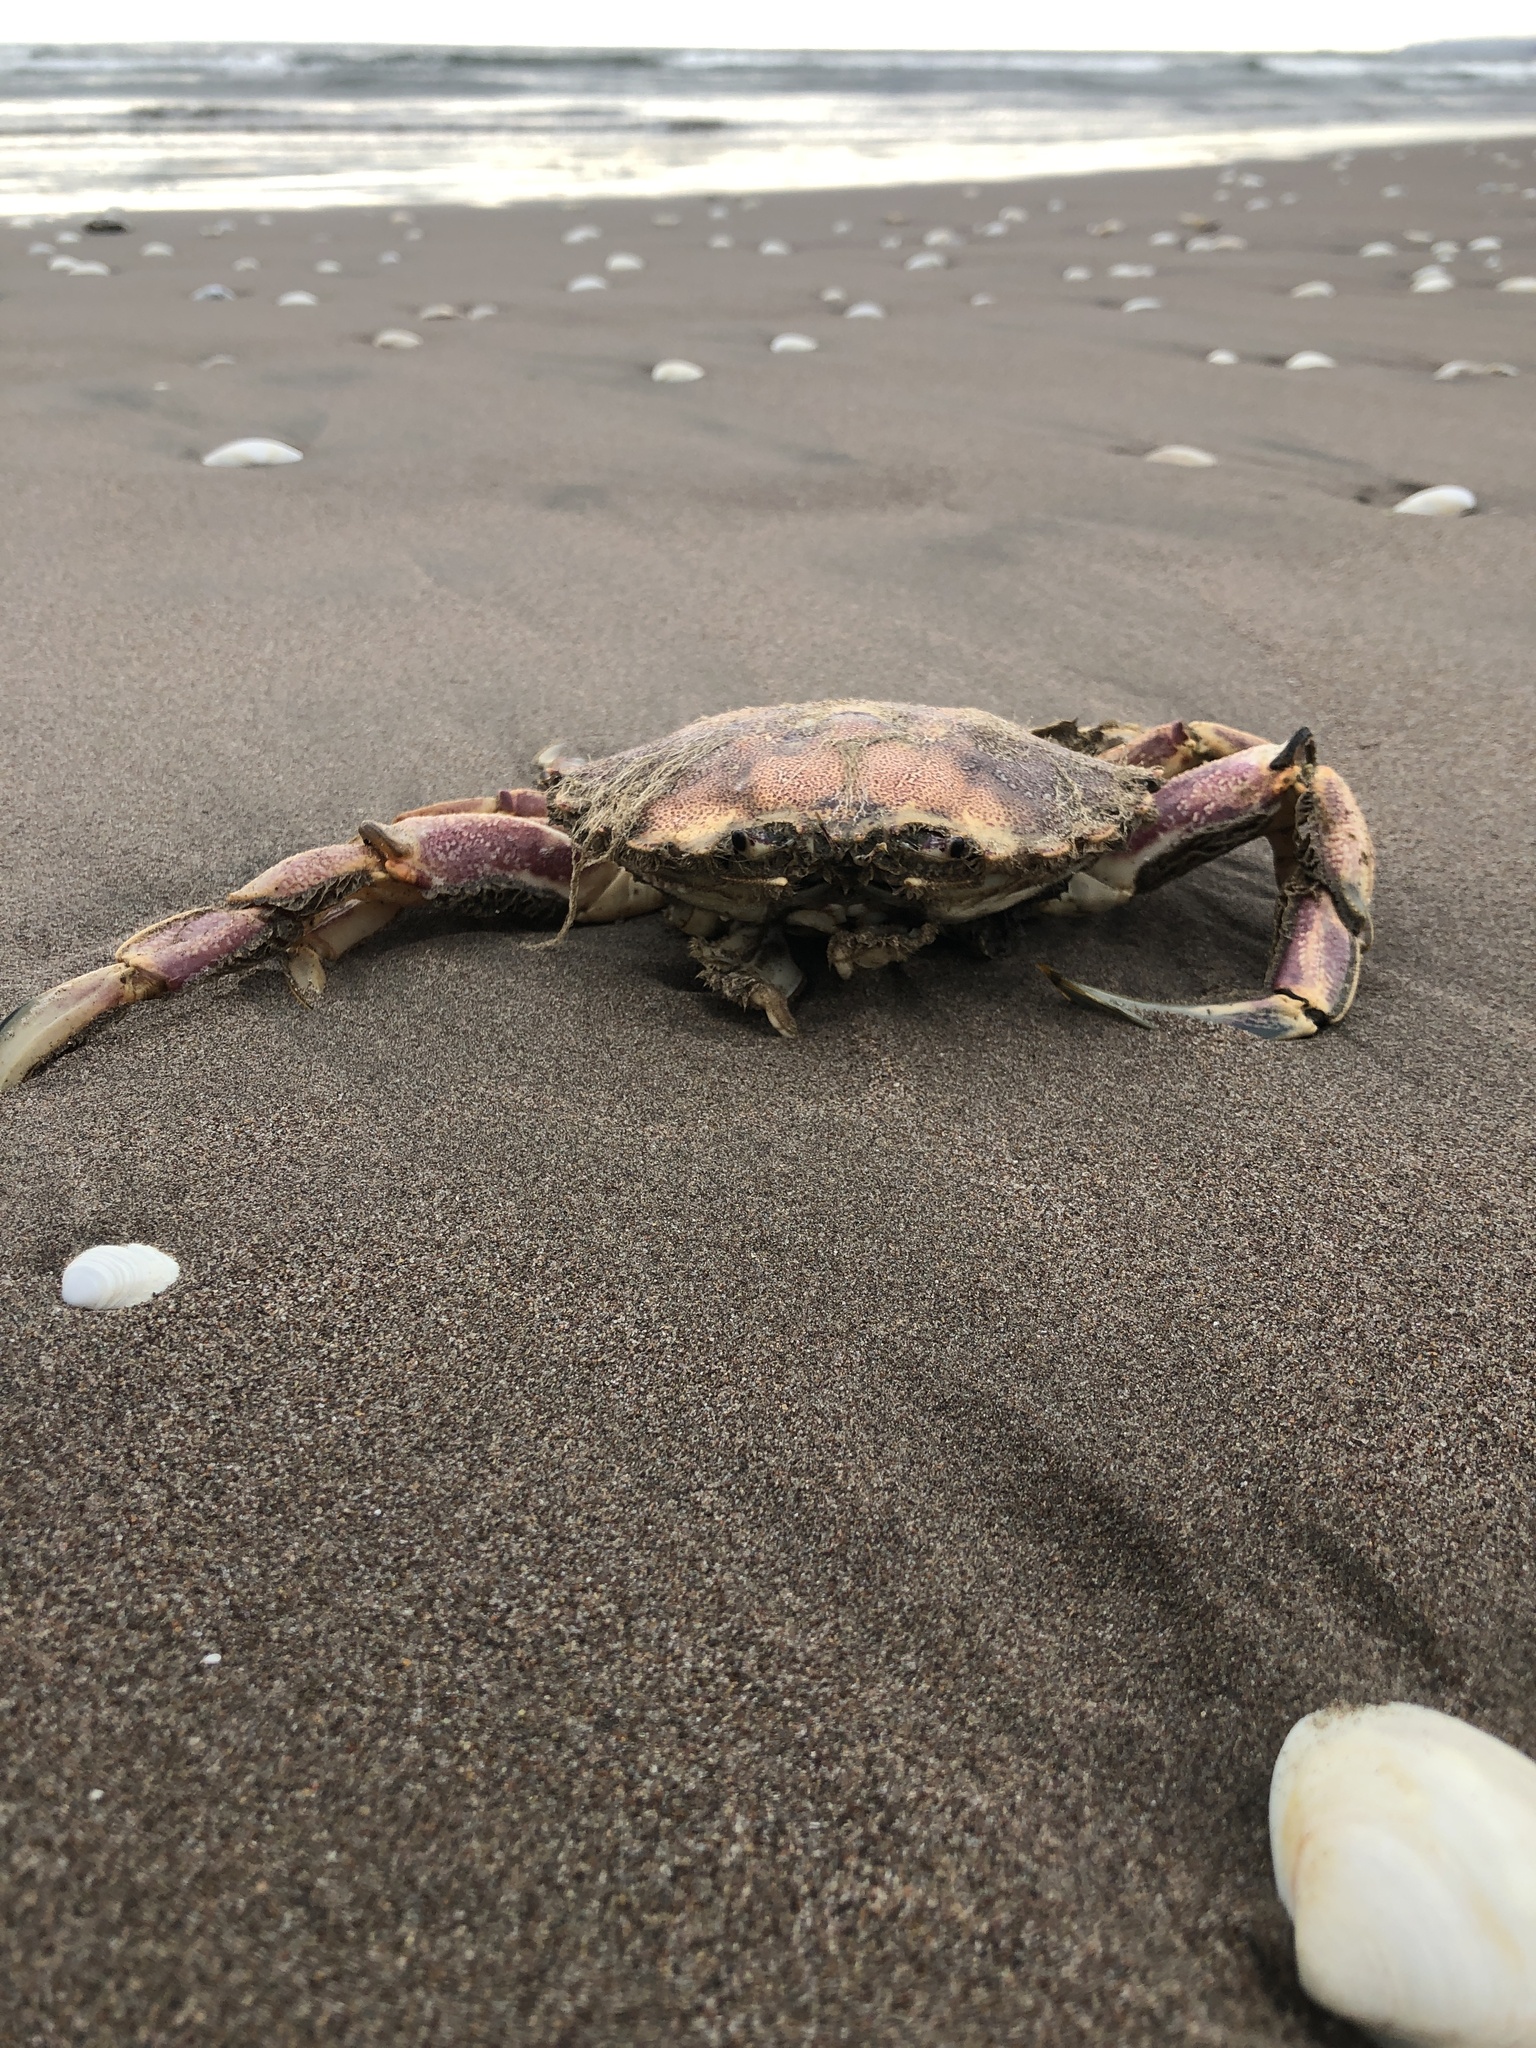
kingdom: Animalia
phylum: Arthropoda
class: Malacostraca
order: Decapoda
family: Ovalipidae
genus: Ovalipes
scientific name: Ovalipes trimaculatus
